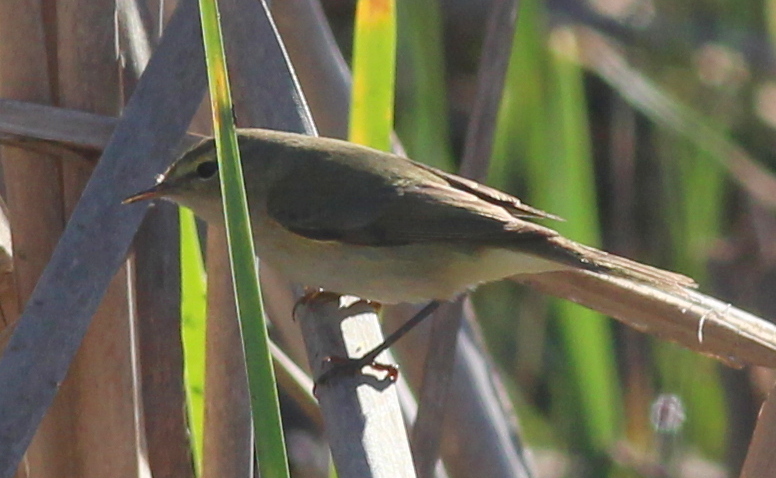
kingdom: Animalia
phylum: Chordata
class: Aves
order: Passeriformes
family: Phylloscopidae
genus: Phylloscopus
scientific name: Phylloscopus collybita
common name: Common chiffchaff
